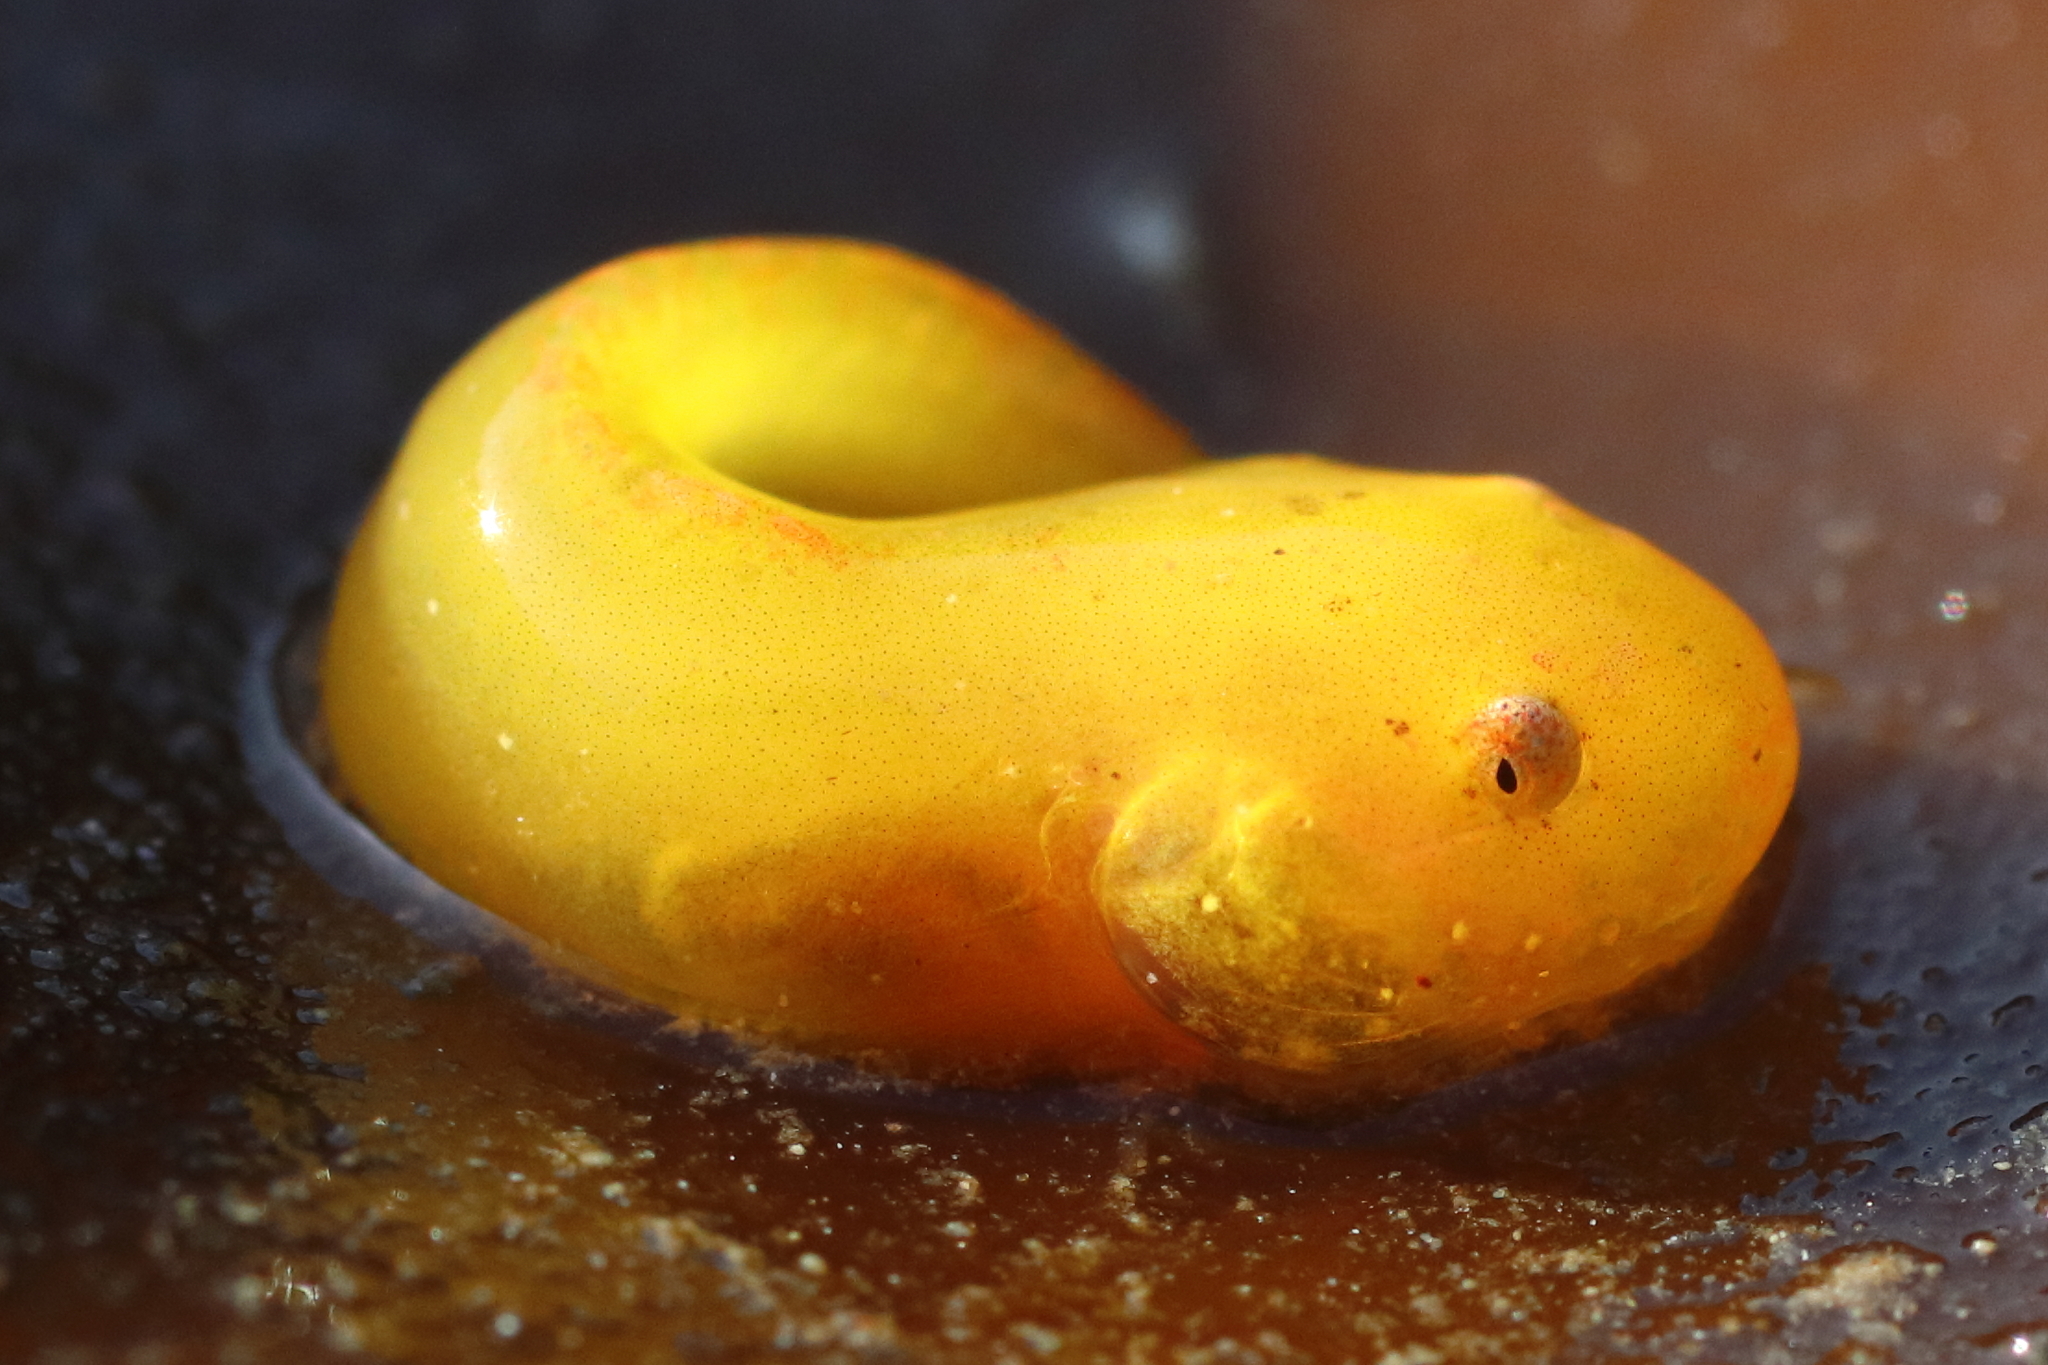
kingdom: Animalia
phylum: Chordata
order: Scorpaeniformes
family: Liparidae
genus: Liparis
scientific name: Liparis florae
